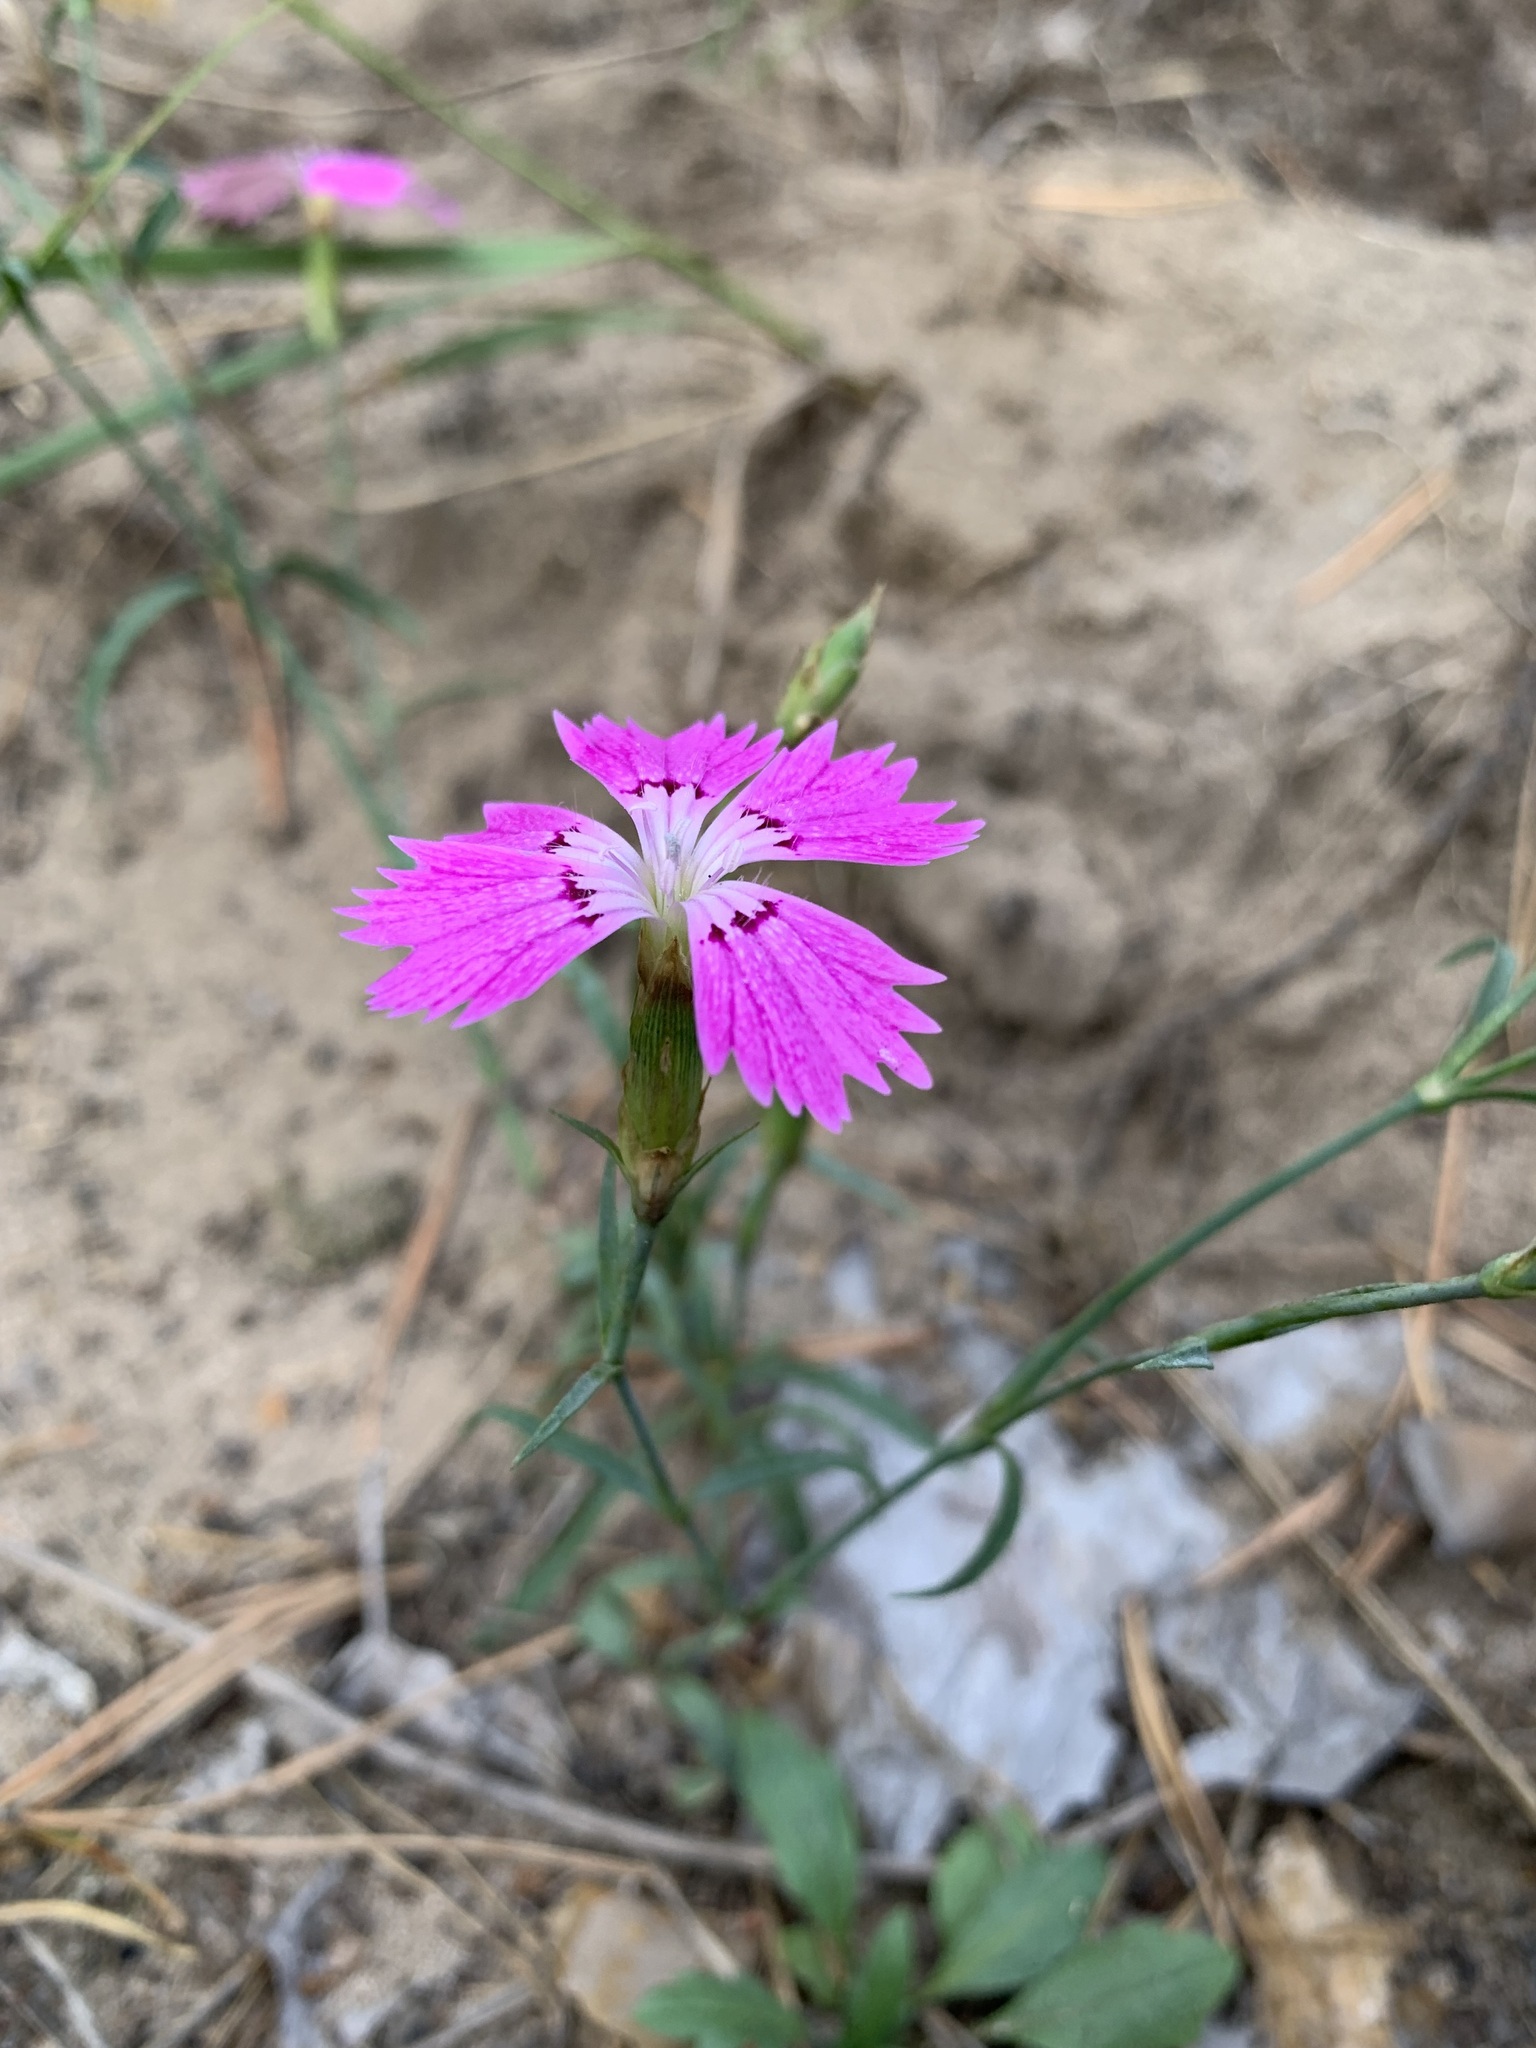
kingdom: Plantae
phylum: Tracheophyta
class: Magnoliopsida
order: Caryophyllales
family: Caryophyllaceae
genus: Dianthus
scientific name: Dianthus chinensis
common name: Rainbow pink
